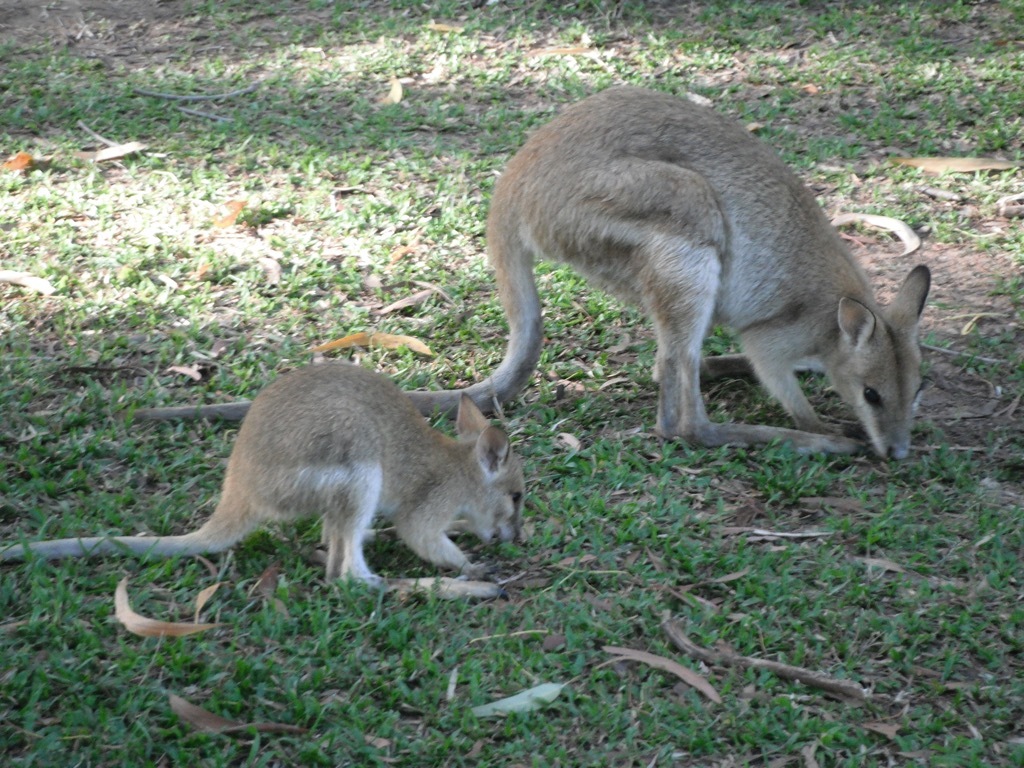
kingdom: Animalia
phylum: Chordata
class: Mammalia
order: Diprotodontia
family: Macropodidae
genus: Macropus
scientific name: Macropus agilis
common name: Agile wallaby
